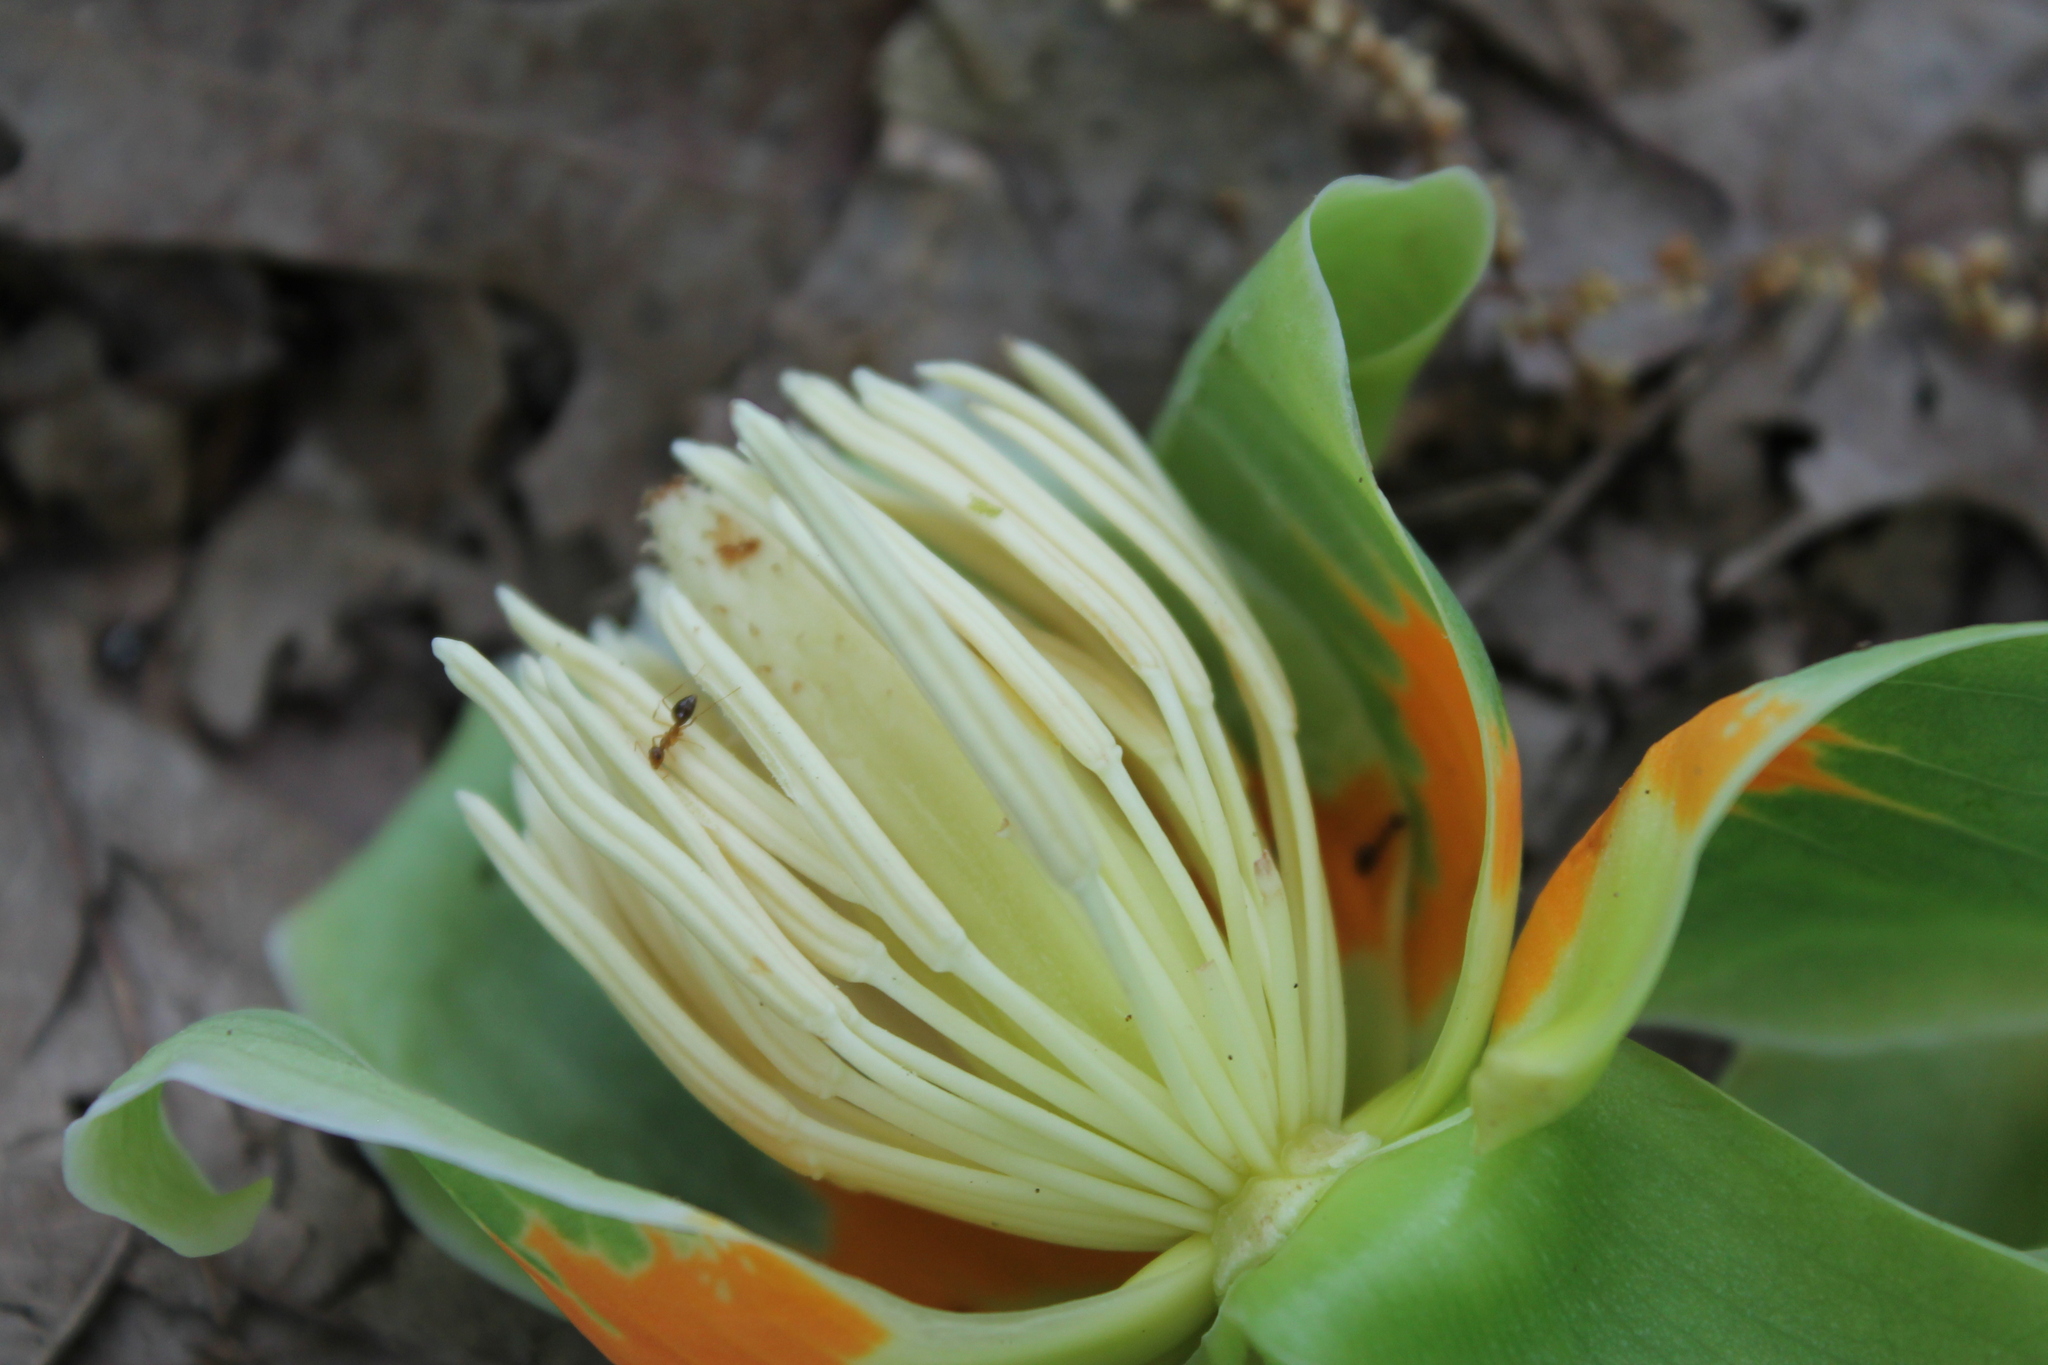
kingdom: Plantae
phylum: Tracheophyta
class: Magnoliopsida
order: Magnoliales
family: Magnoliaceae
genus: Liriodendron
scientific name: Liriodendron tulipifera
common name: Tulip tree
